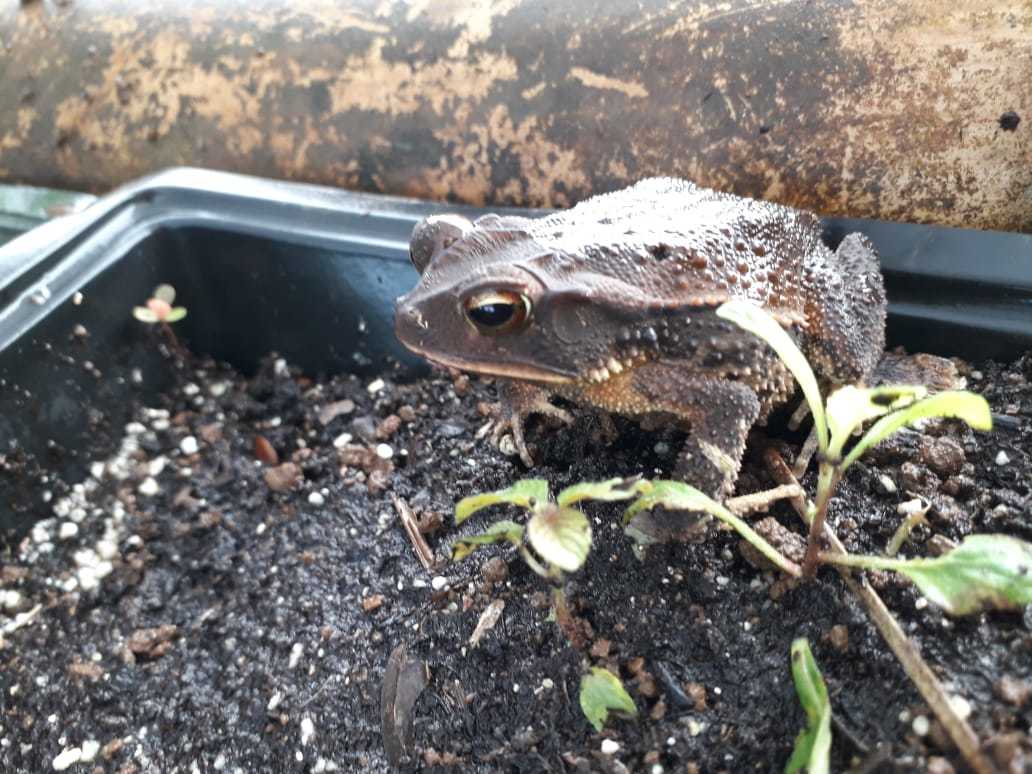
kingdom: Animalia
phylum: Chordata
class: Amphibia
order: Anura
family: Bufonidae
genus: Incilius
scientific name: Incilius valliceps
